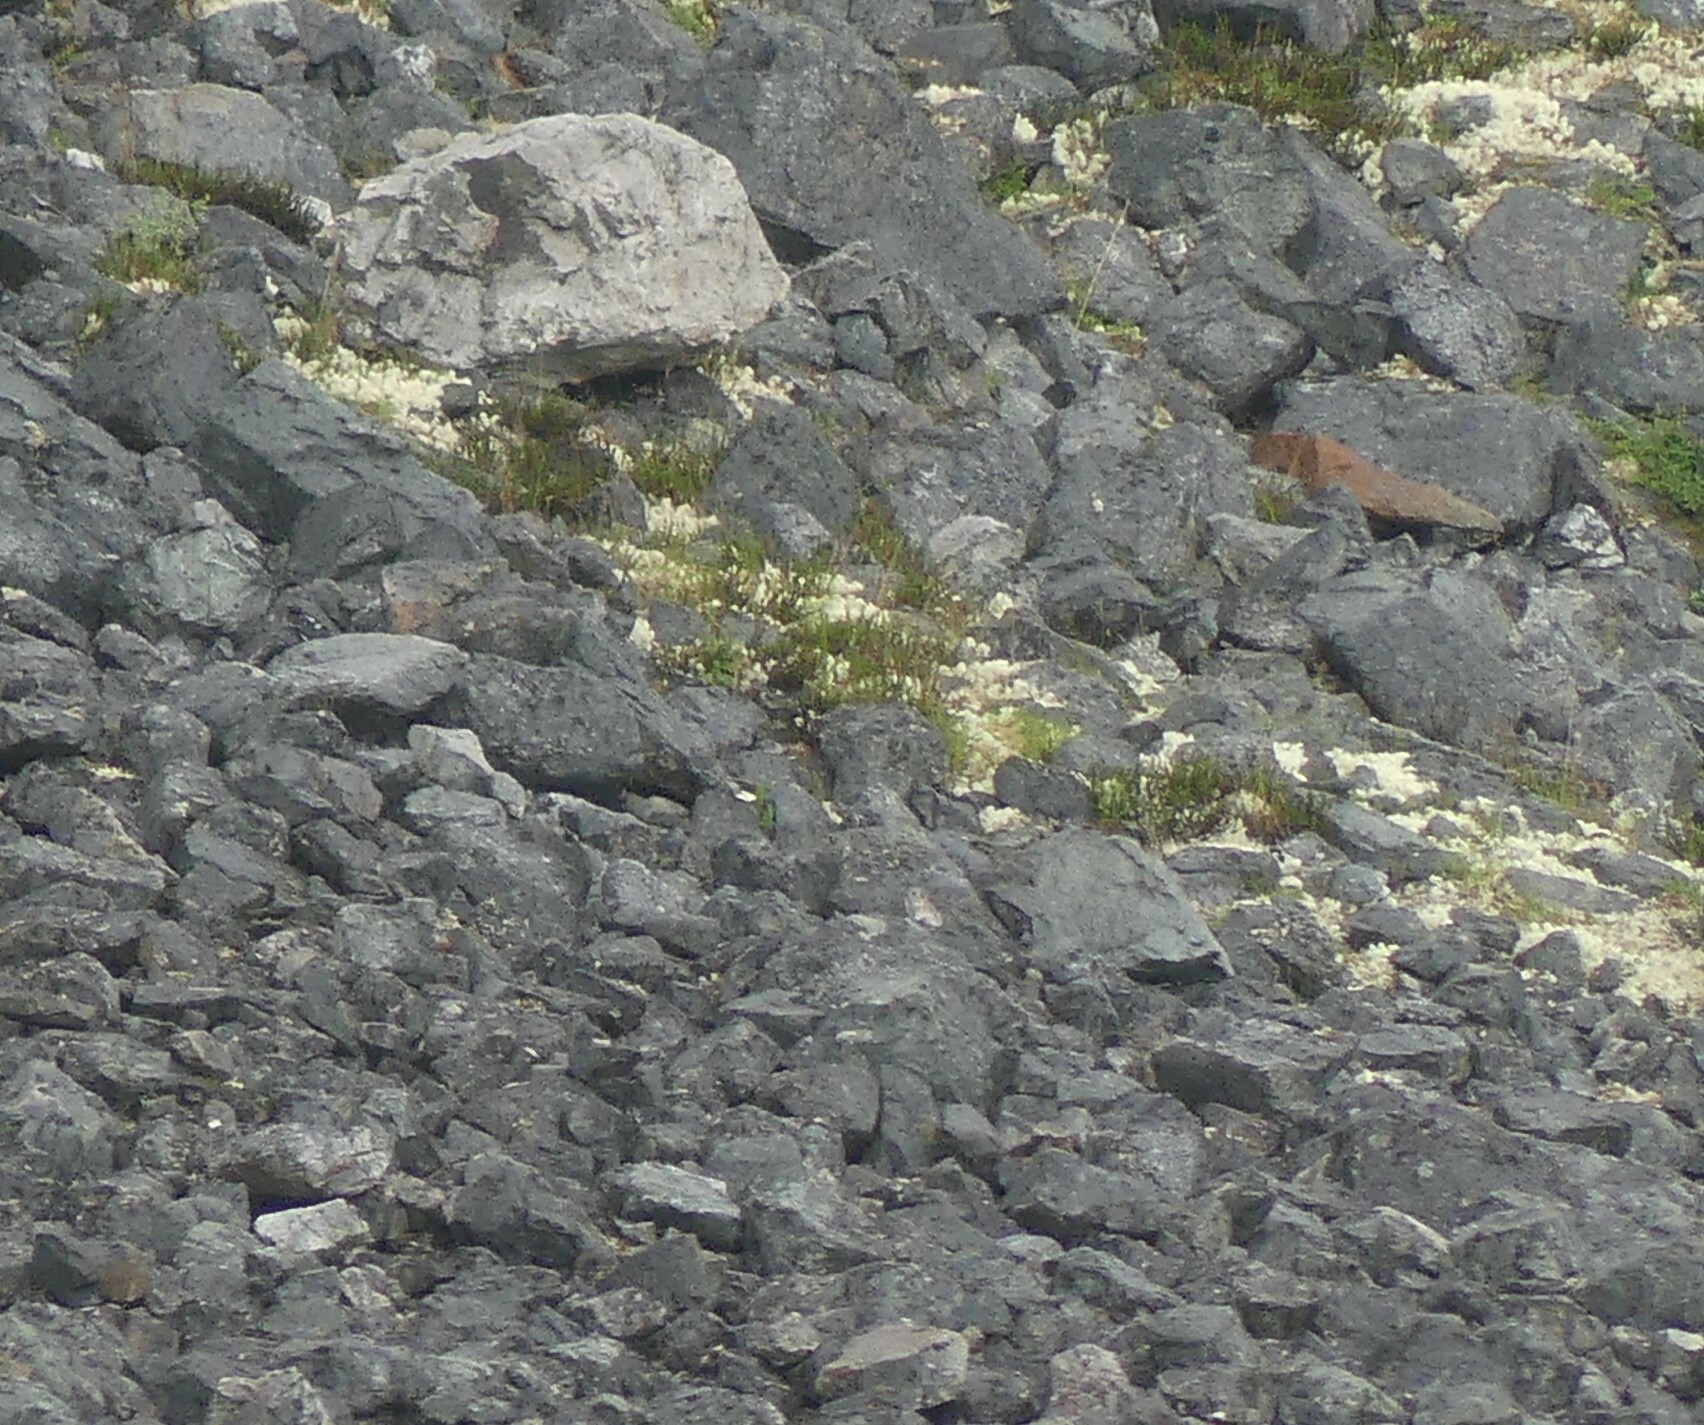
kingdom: Animalia
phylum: Chordata
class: Mammalia
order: Lagomorpha
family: Ochotonidae
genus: Ochotona
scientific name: Ochotona collaris
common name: Collared pika
